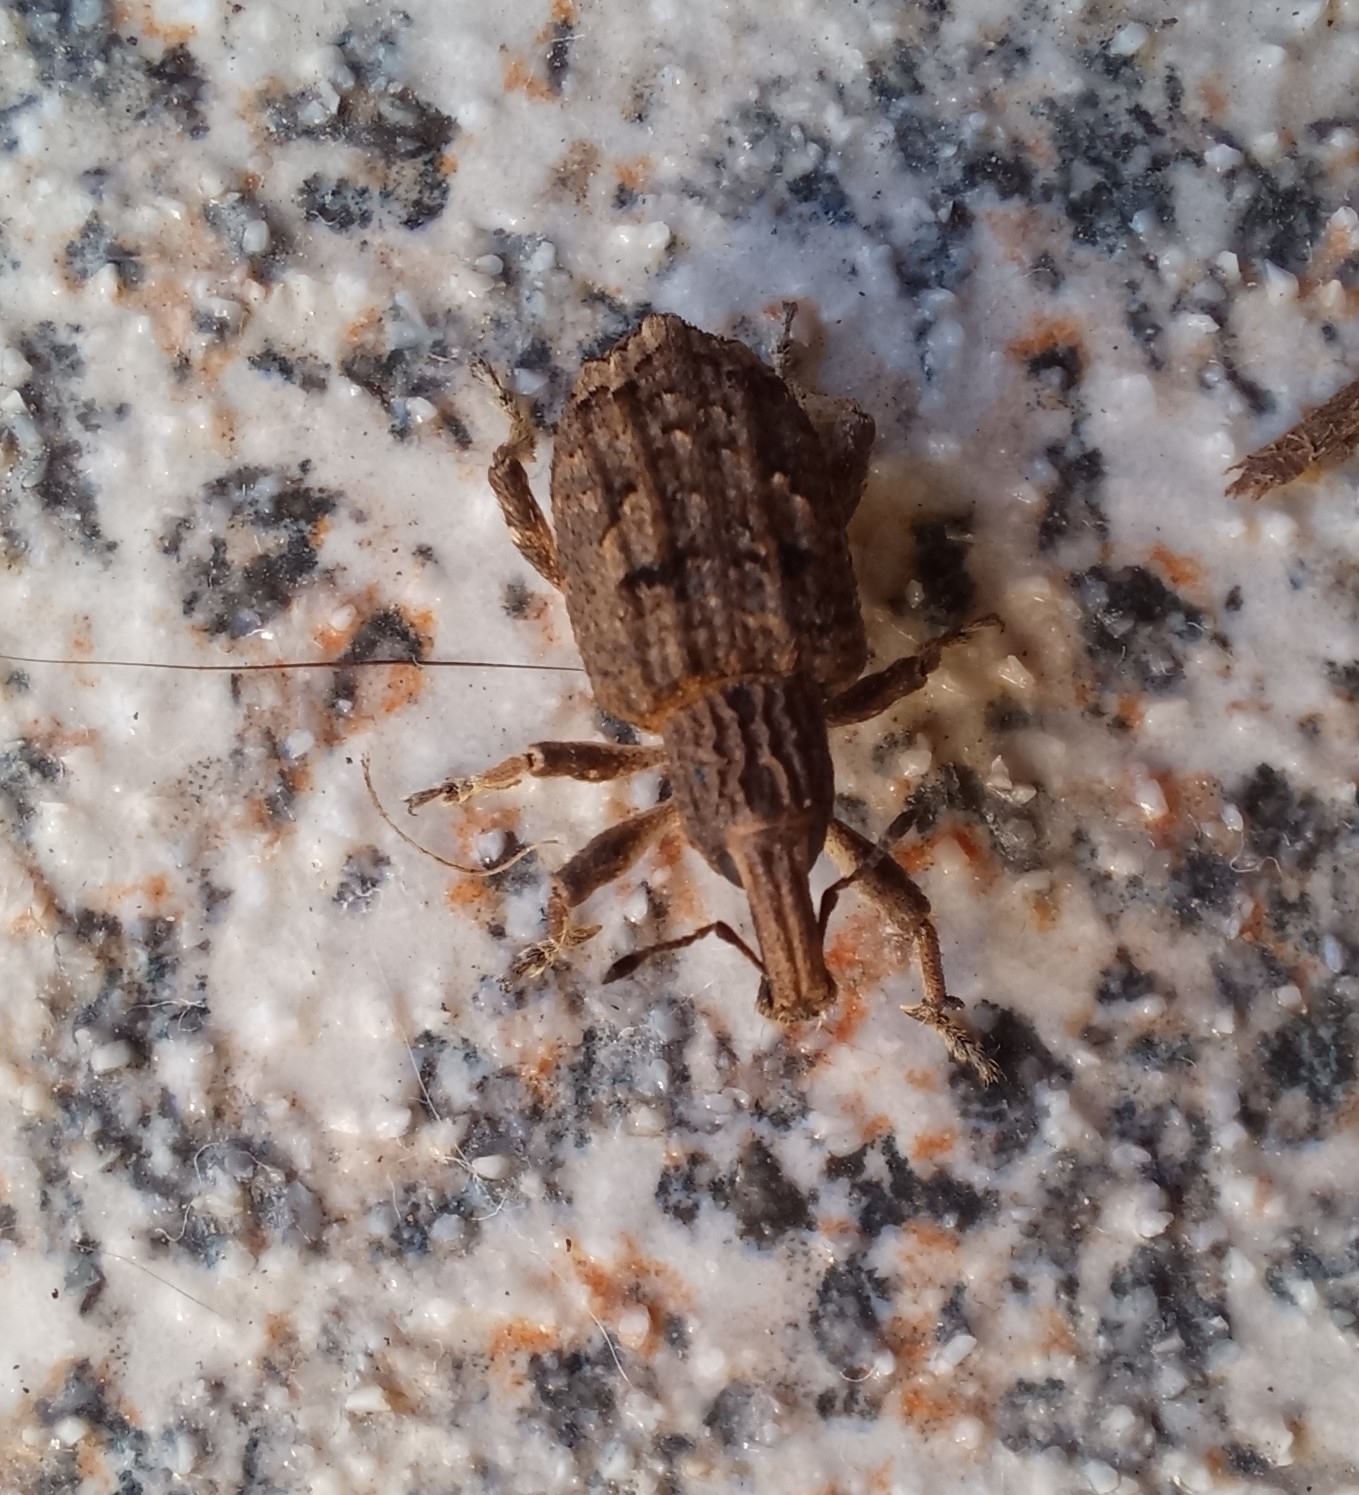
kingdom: Animalia
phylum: Arthropoda
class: Insecta
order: Coleoptera
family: Curculionidae
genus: Rhytideres
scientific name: Rhytideres plicatus
